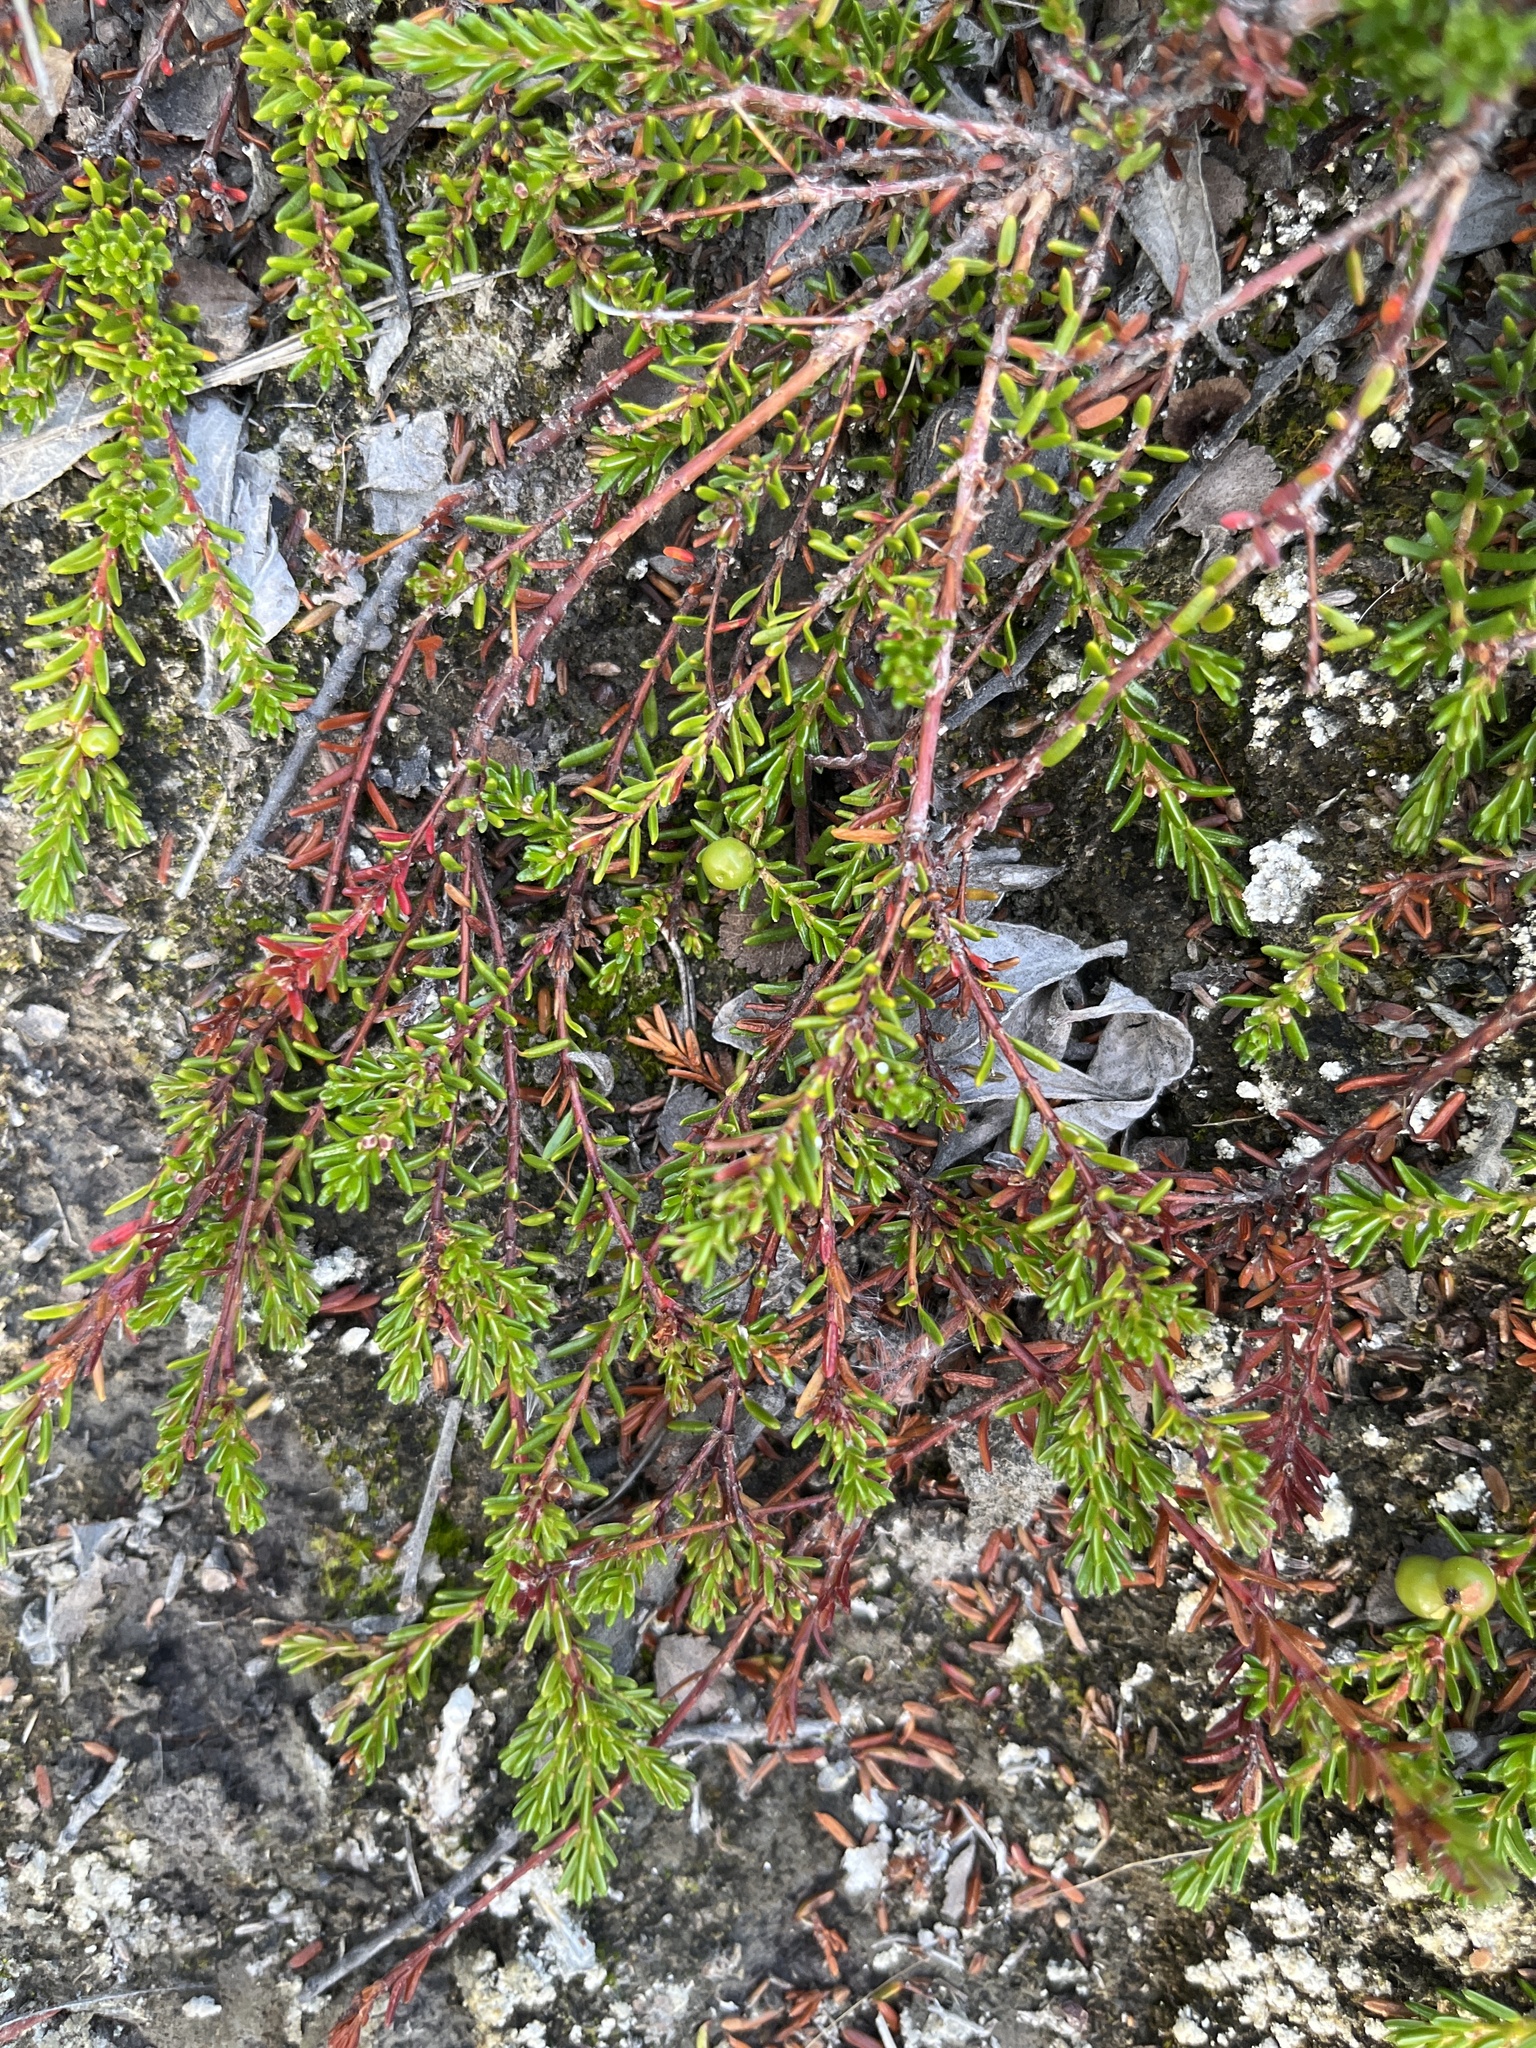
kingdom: Plantae
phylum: Tracheophyta
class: Magnoliopsida
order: Ericales
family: Ericaceae
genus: Empetrum
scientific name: Empetrum hermaphroditum
